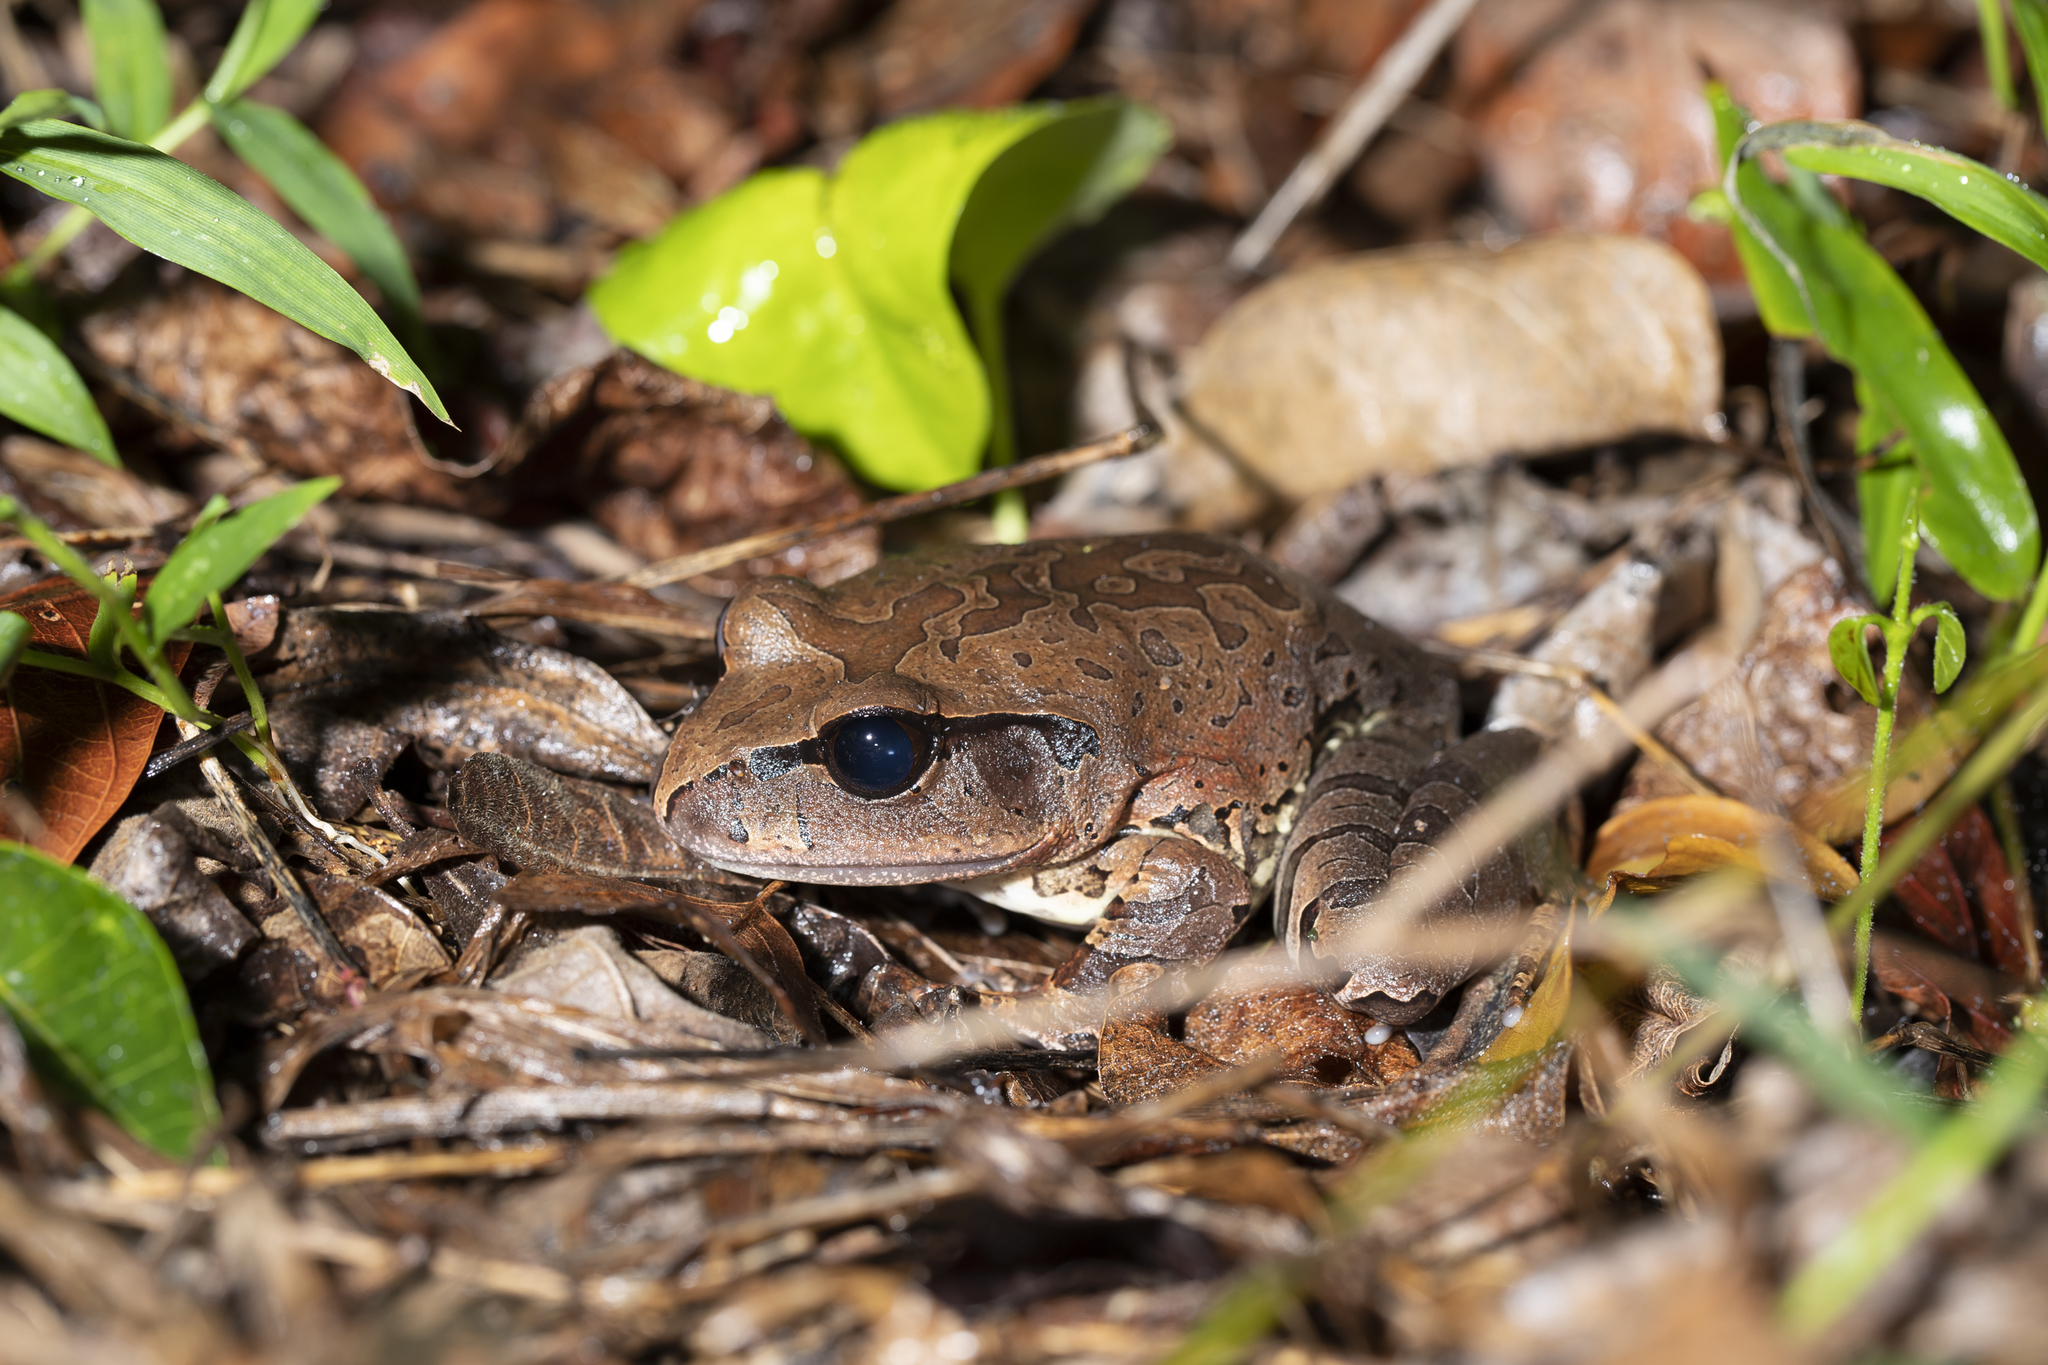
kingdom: Animalia
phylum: Chordata
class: Amphibia
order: Anura
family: Myobatrachidae
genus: Mixophyes
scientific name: Mixophyes schevilli
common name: Northern barred frog
